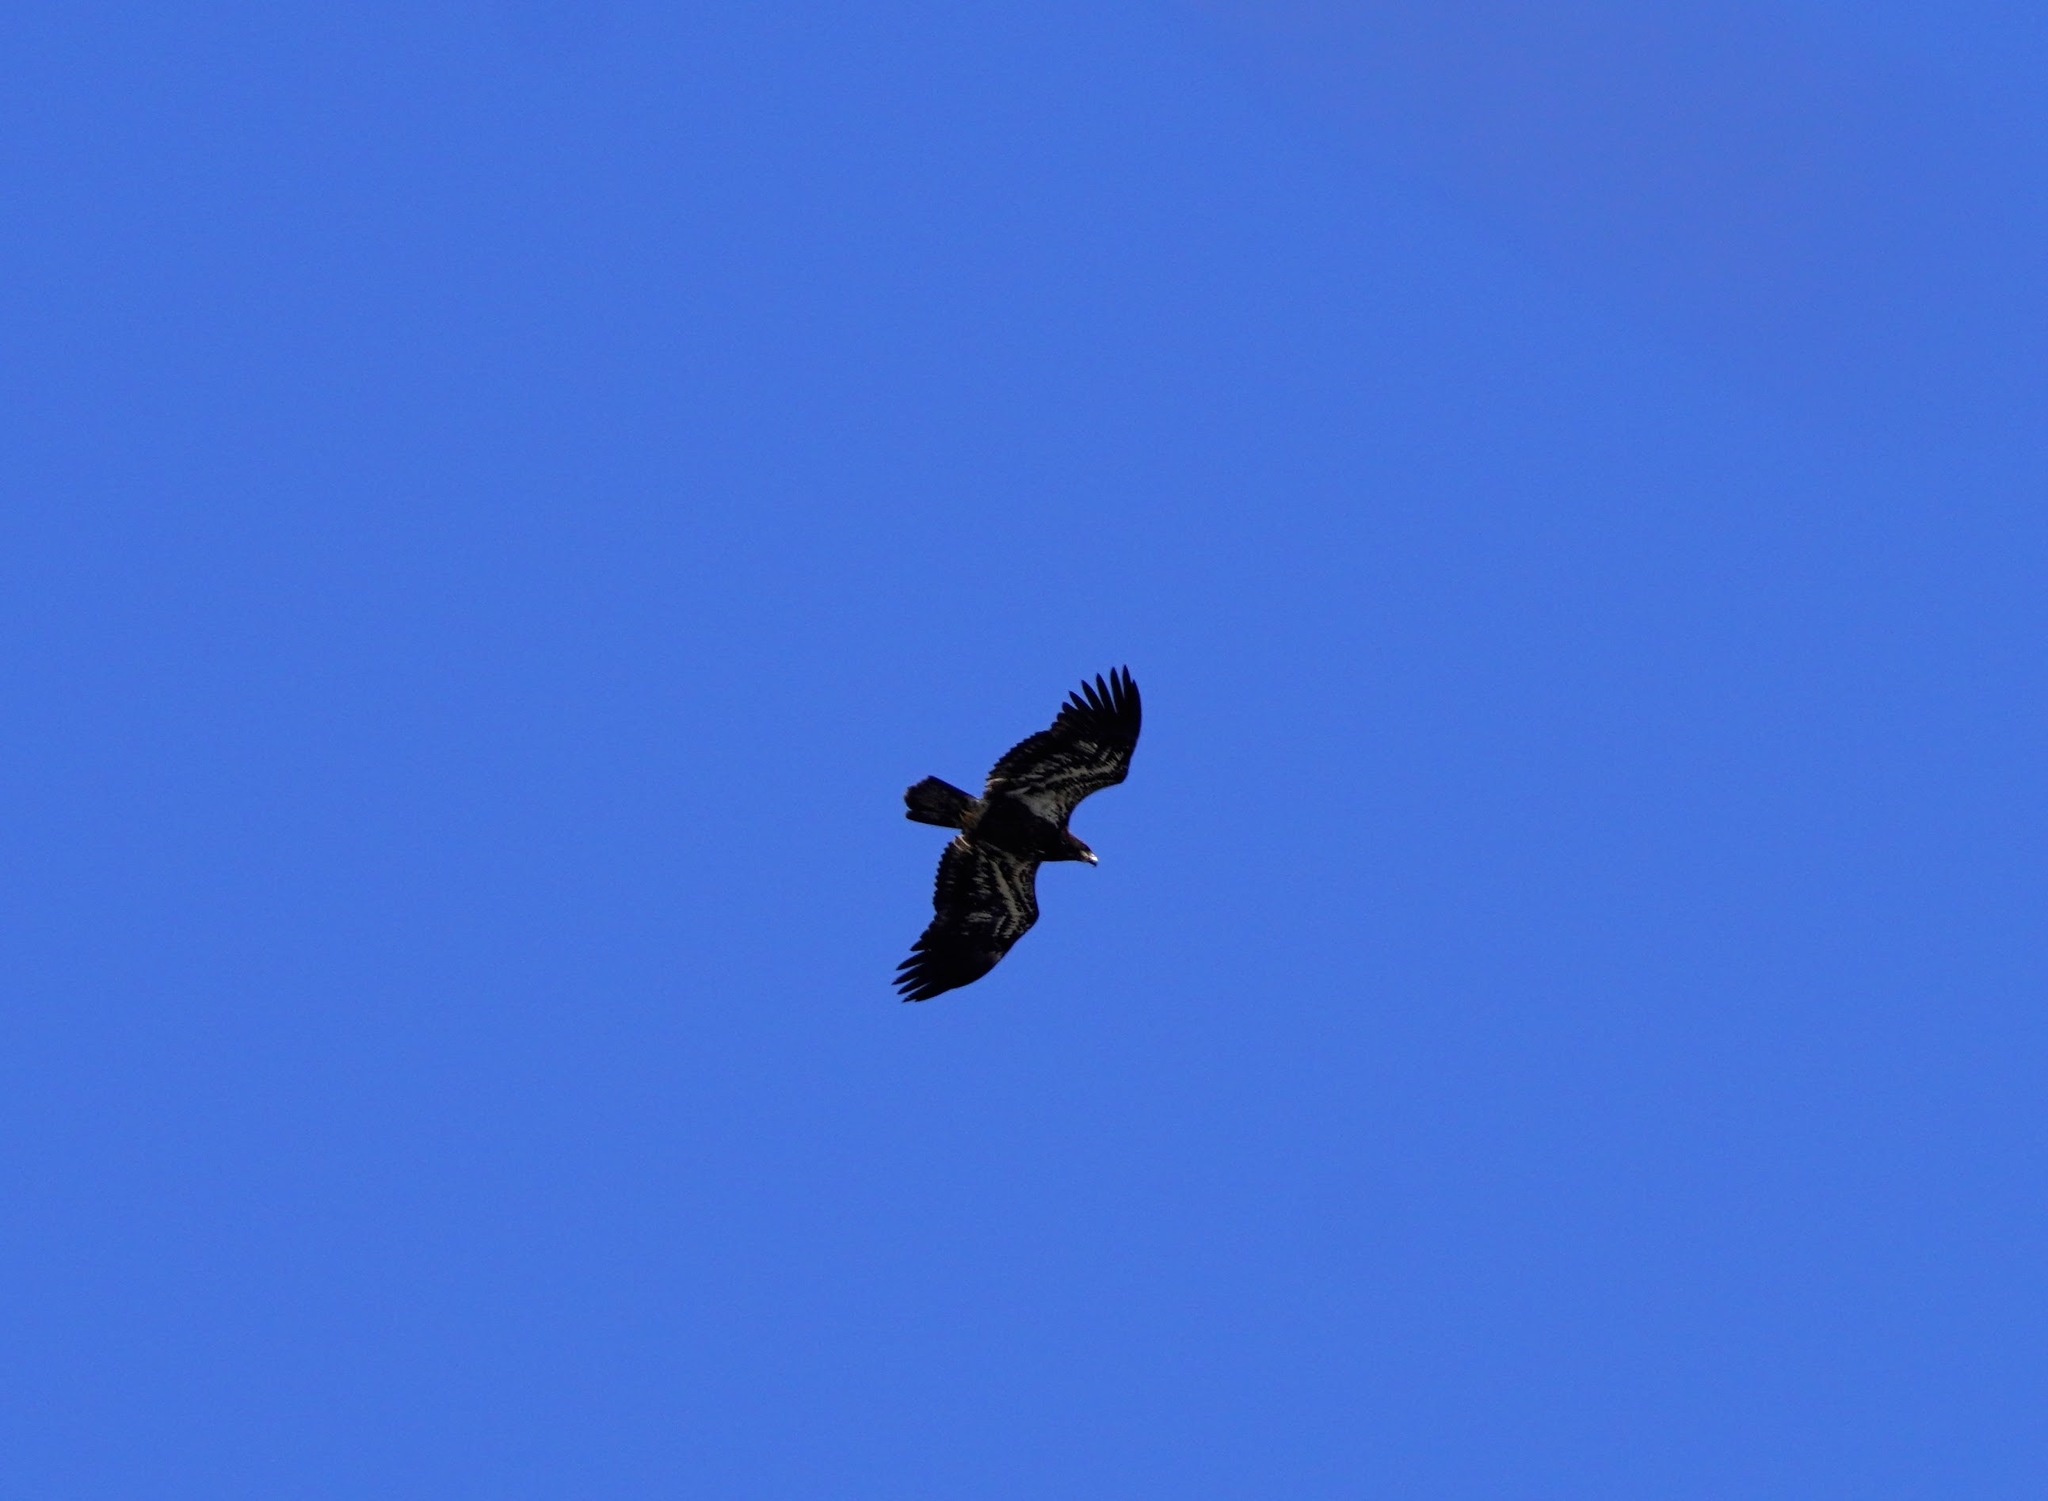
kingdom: Animalia
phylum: Chordata
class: Aves
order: Accipitriformes
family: Accipitridae
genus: Haliaeetus
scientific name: Haliaeetus leucocephalus
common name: Bald eagle
